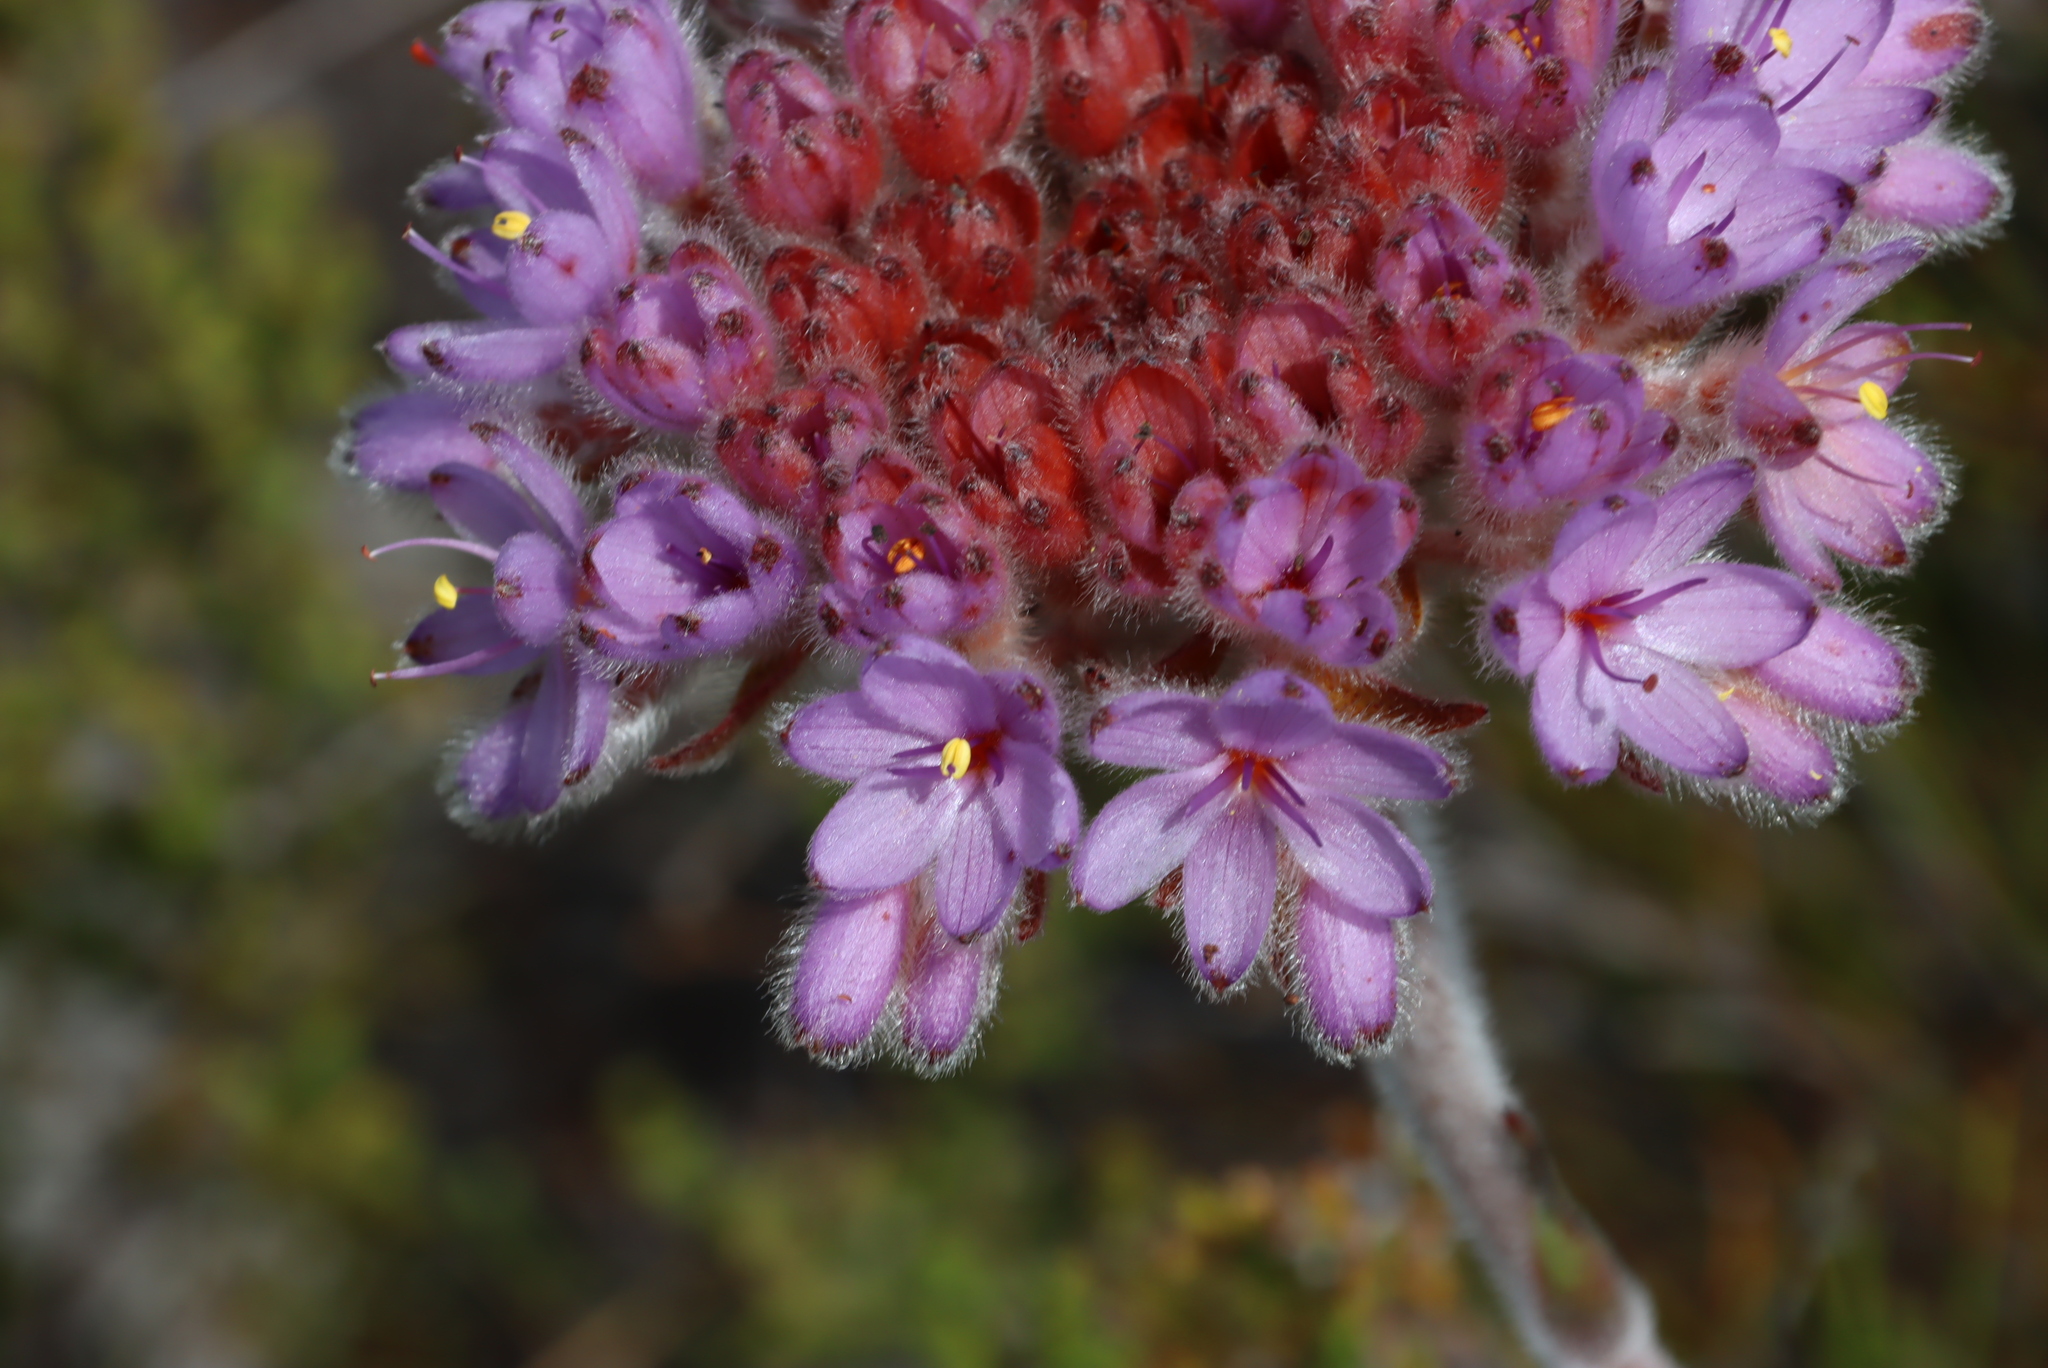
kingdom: Plantae
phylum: Tracheophyta
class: Liliopsida
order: Commelinales
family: Haemodoraceae
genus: Dilatris
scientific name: Dilatris corymbosa
